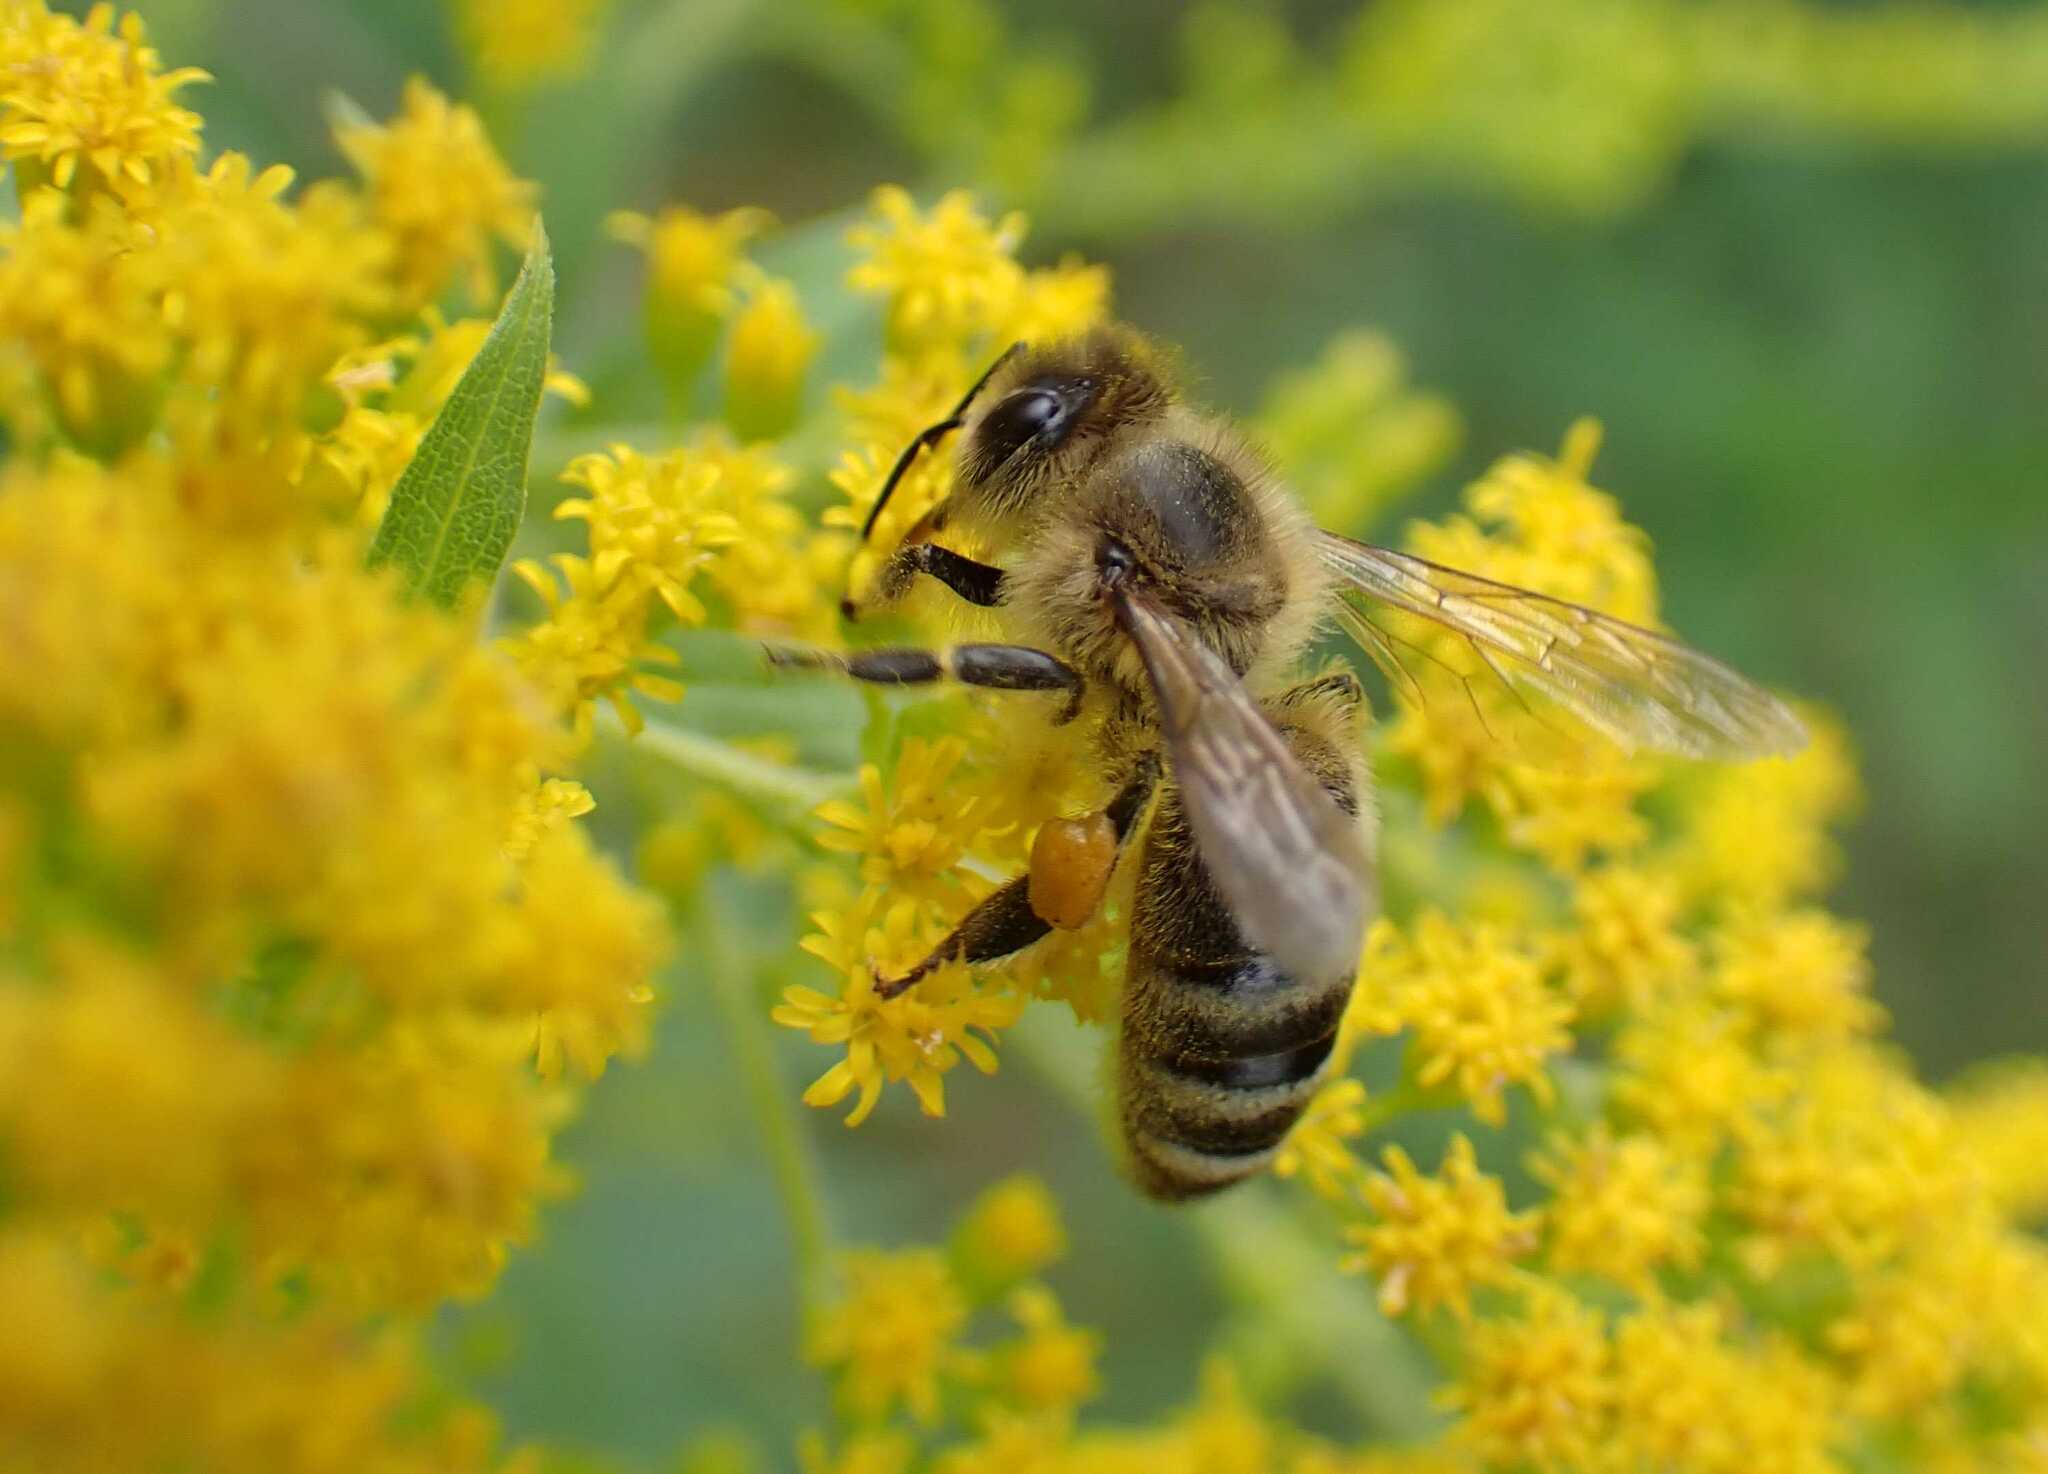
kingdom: Animalia
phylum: Arthropoda
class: Insecta
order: Hymenoptera
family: Apidae
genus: Apis
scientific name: Apis mellifera
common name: Honey bee
